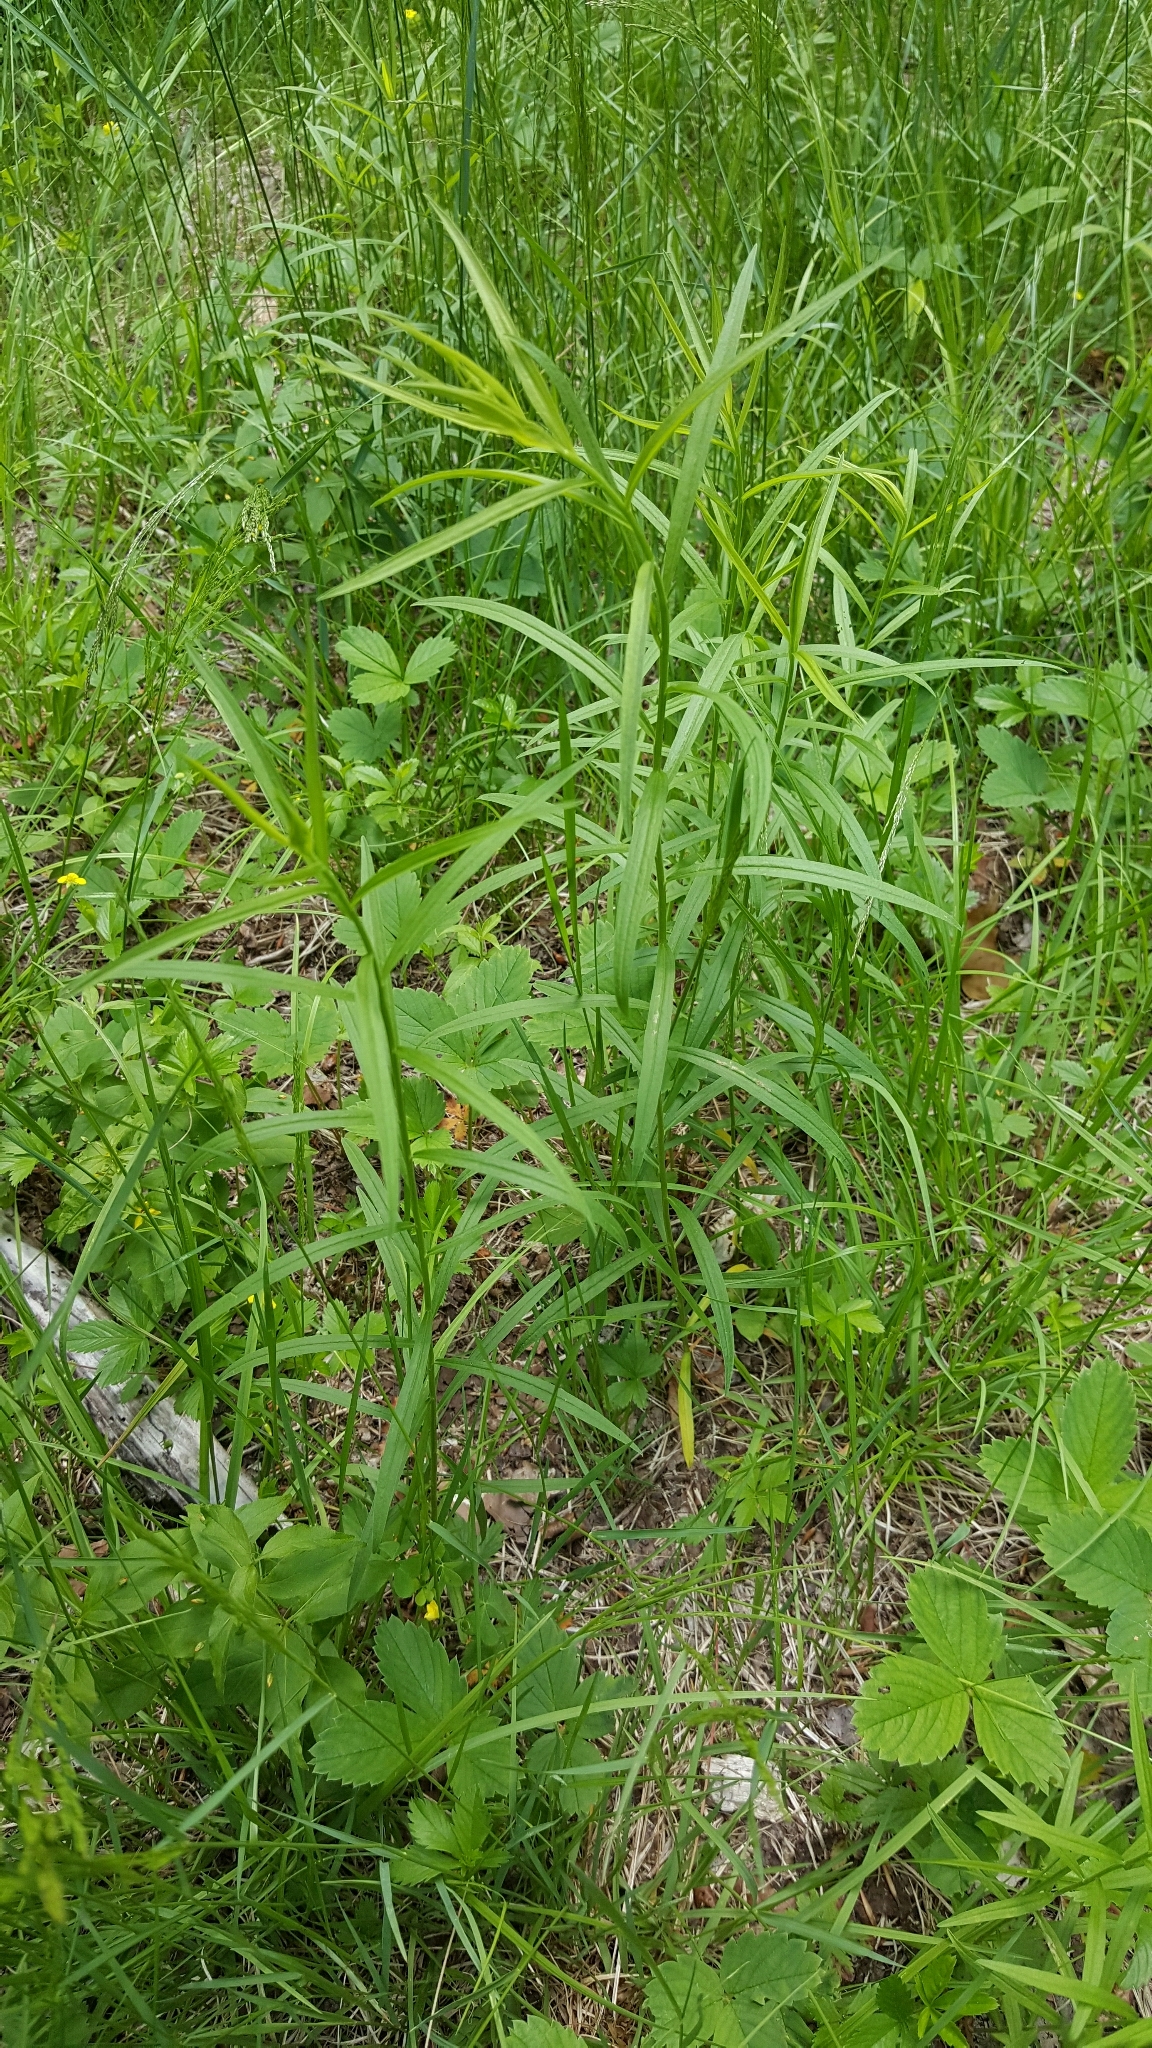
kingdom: Plantae
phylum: Tracheophyta
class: Magnoliopsida
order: Asterales
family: Asteraceae
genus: Euthamia
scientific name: Euthamia graminifolia
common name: Common goldentop
